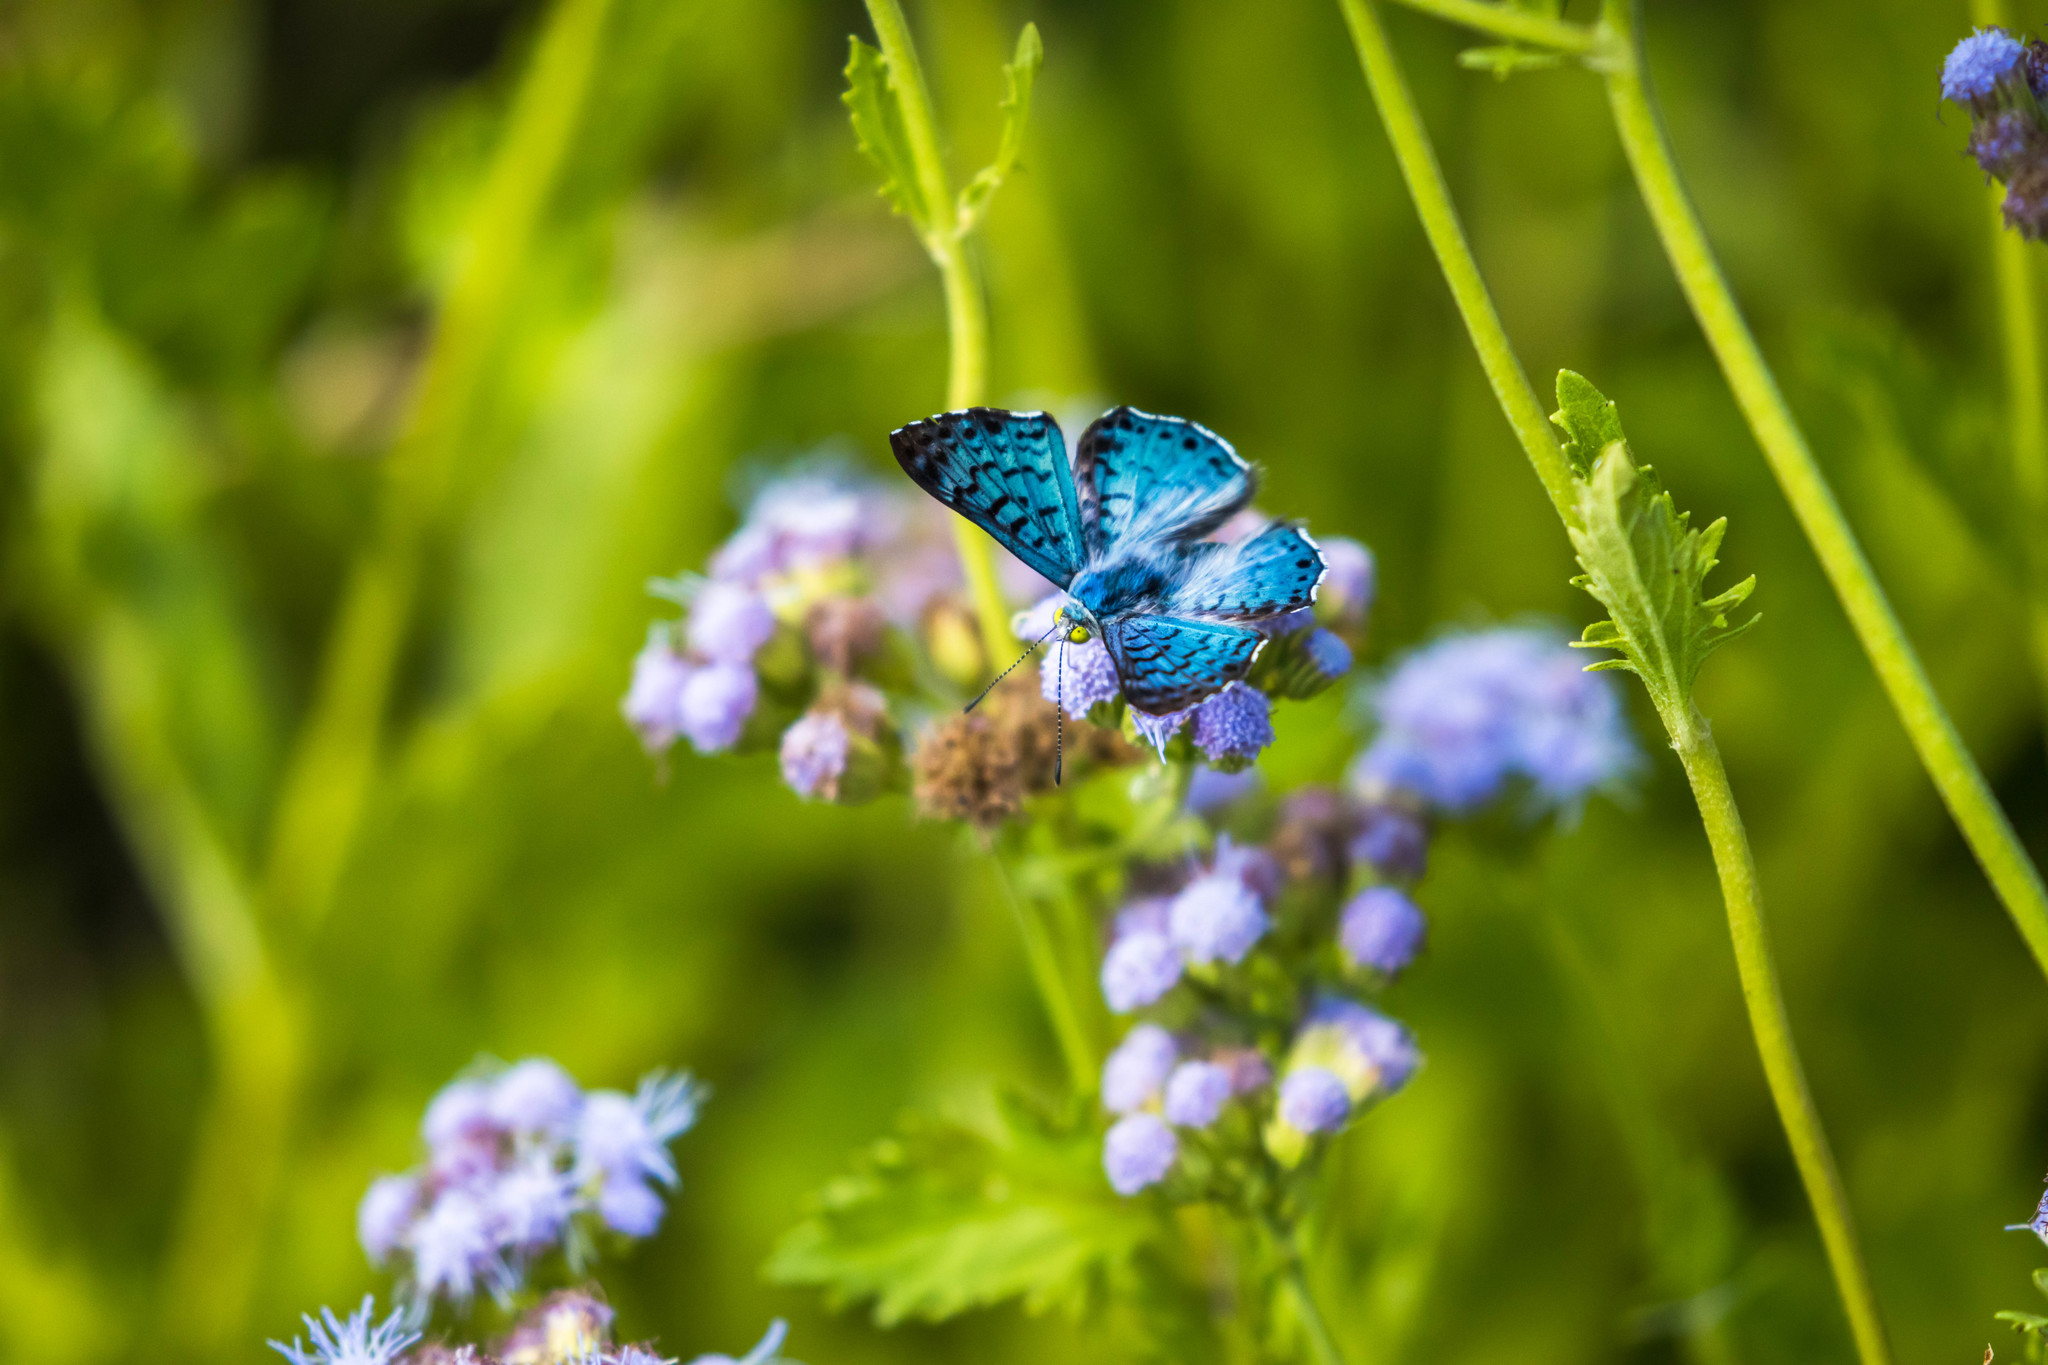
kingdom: Animalia
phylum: Arthropoda
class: Insecta
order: Lepidoptera
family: Riodinidae
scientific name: Riodinidae
